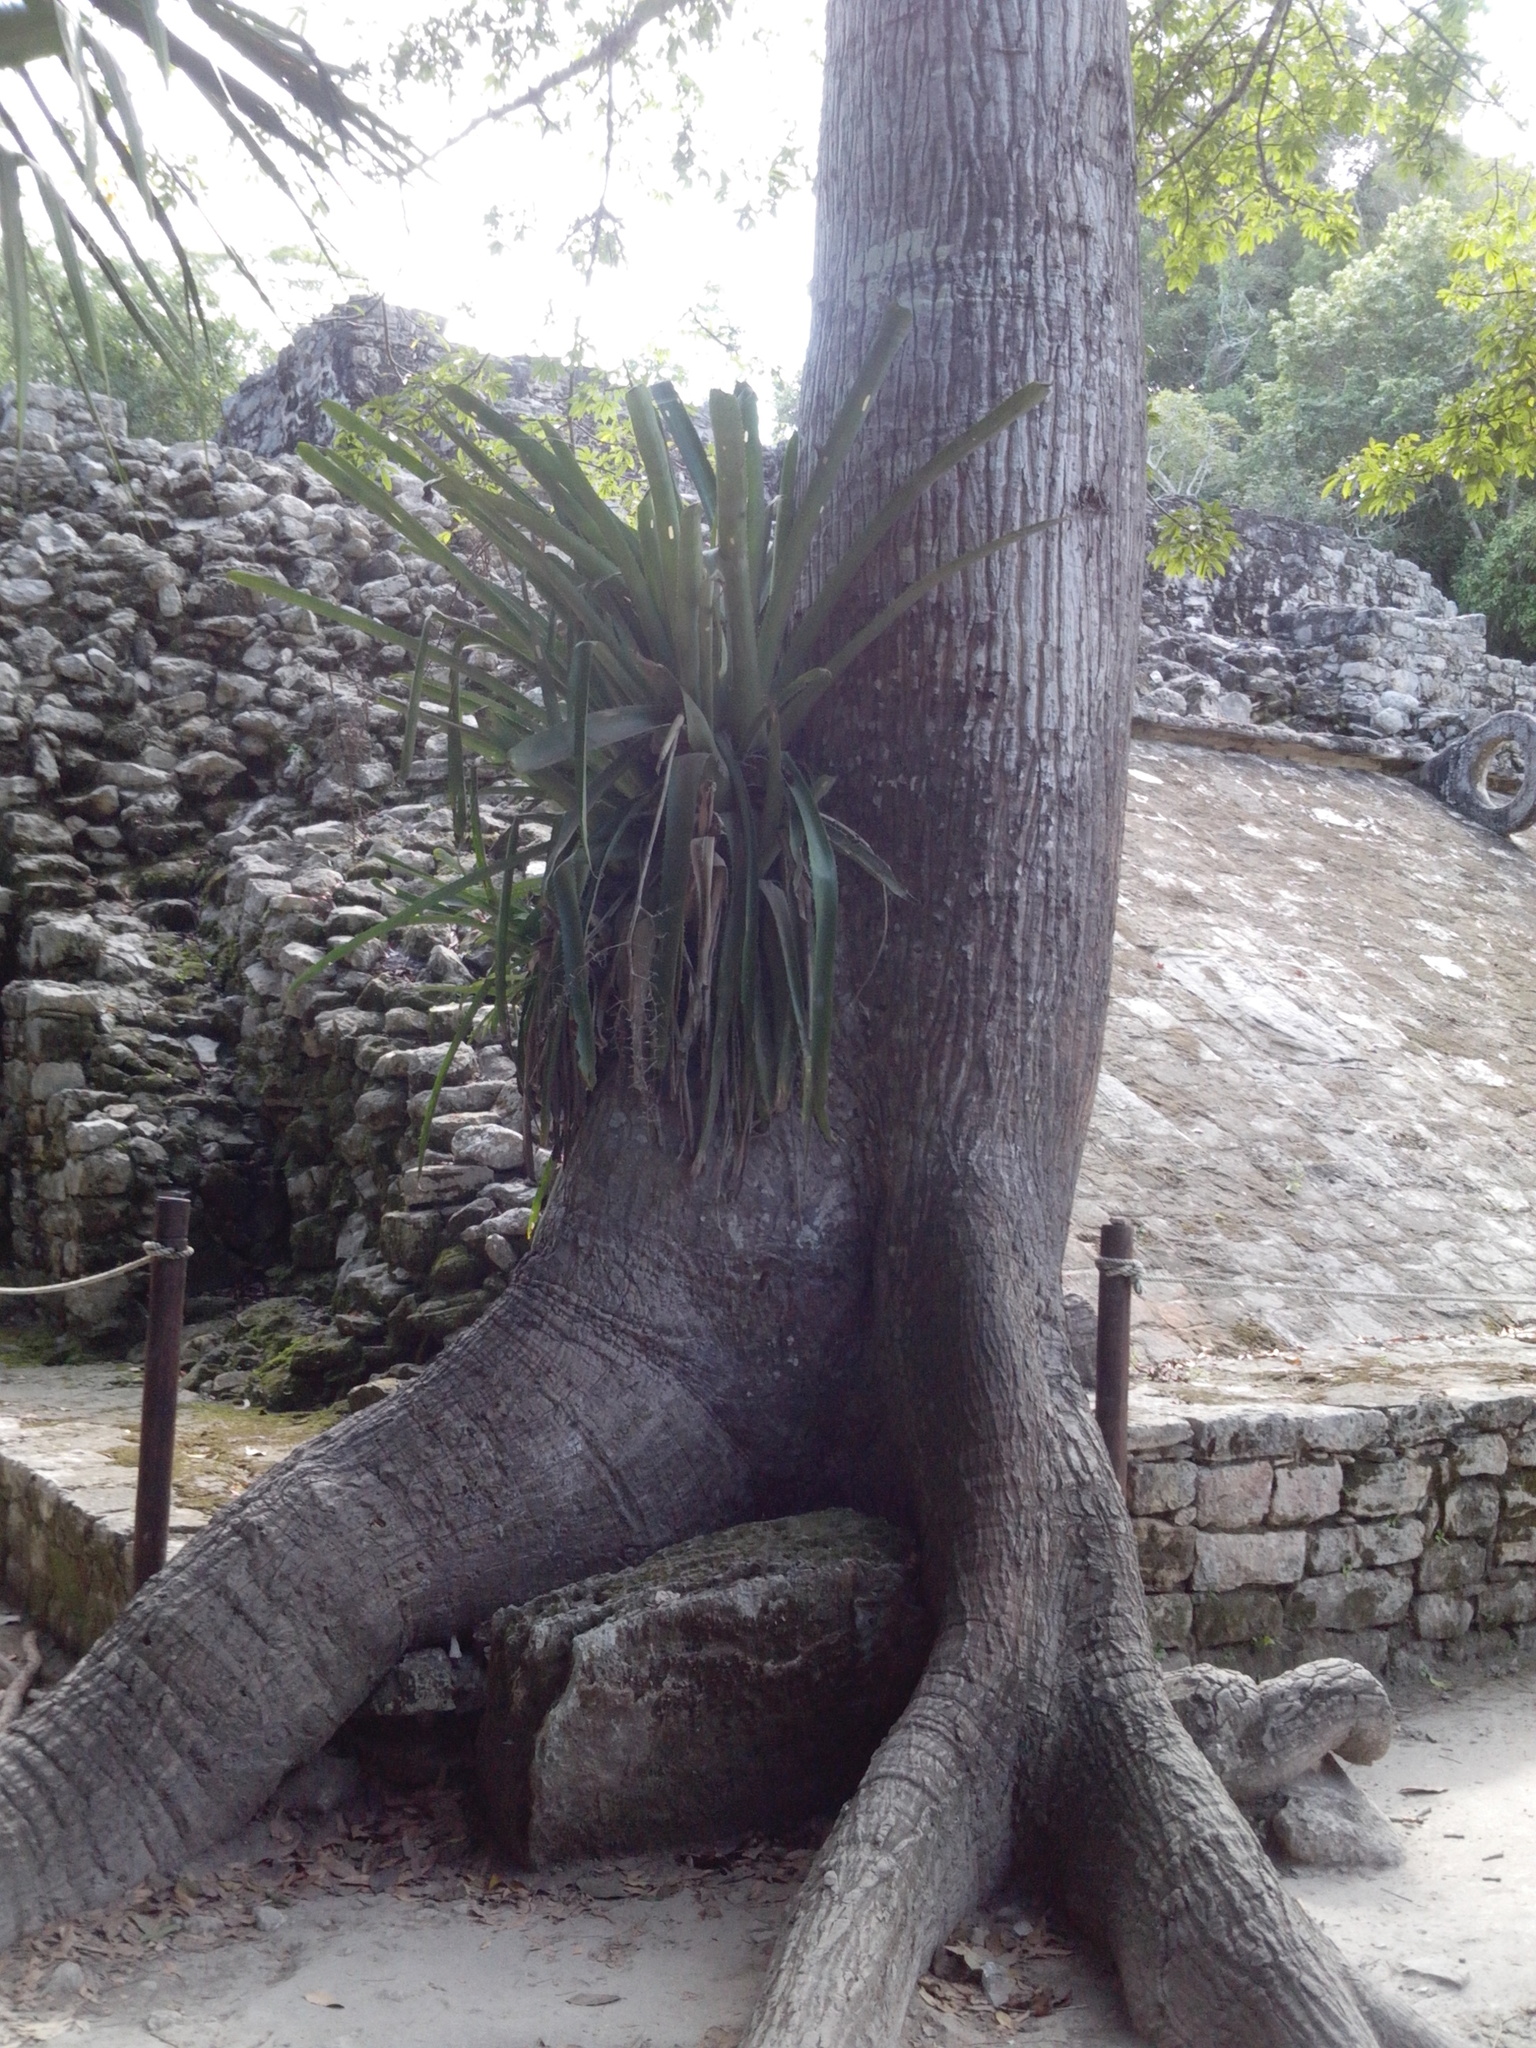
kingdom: Plantae
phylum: Tracheophyta
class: Liliopsida
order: Poales
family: Bromeliaceae
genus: Aechmea
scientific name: Aechmea bracteata
